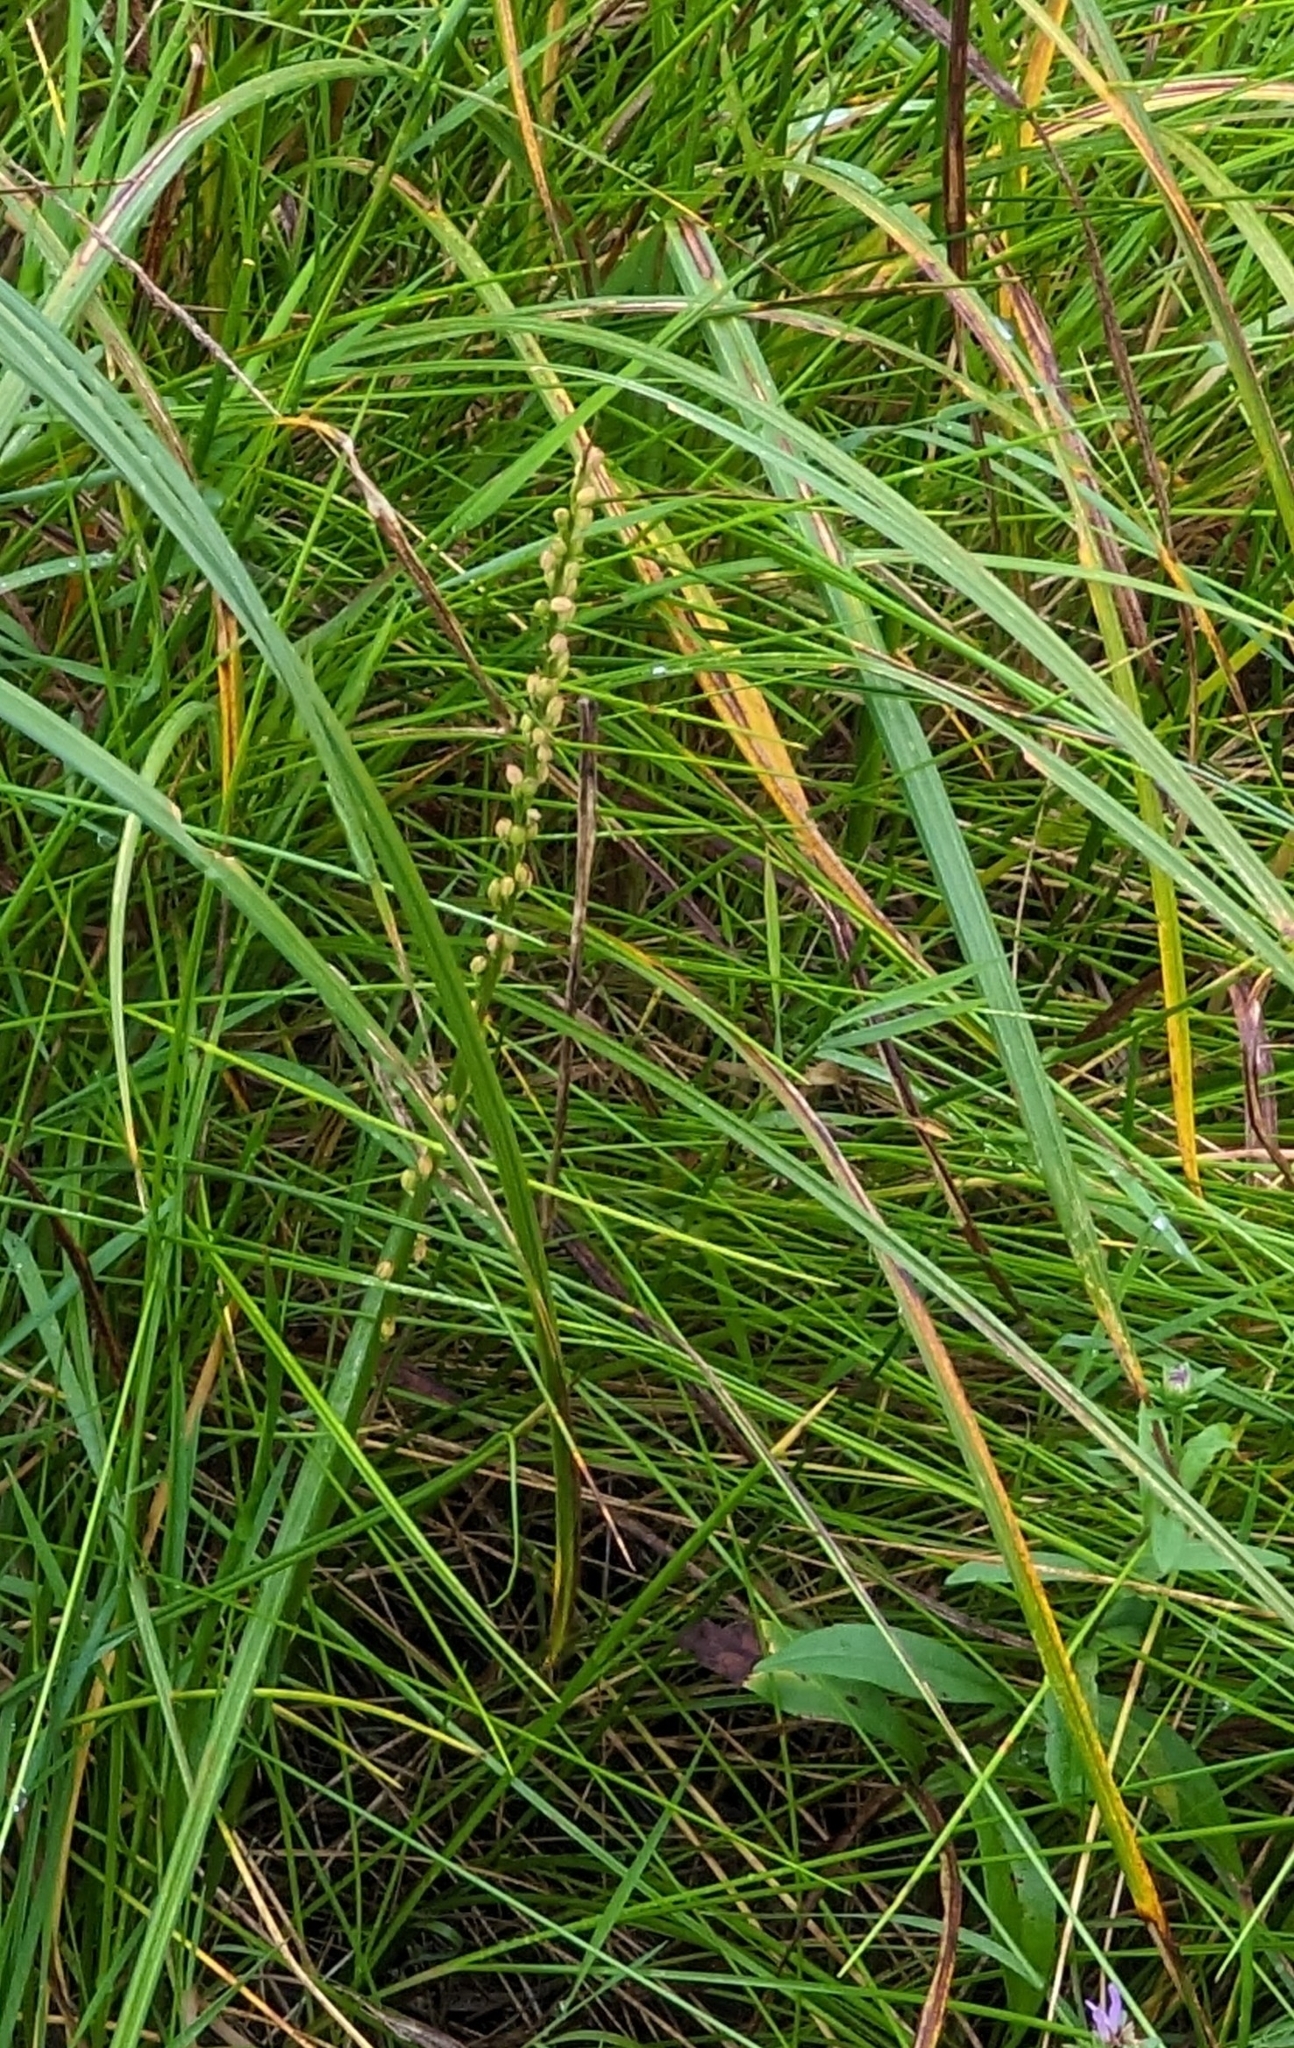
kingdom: Plantae
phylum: Tracheophyta
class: Liliopsida
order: Alismatales
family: Juncaginaceae
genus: Triglochin
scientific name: Triglochin maritima
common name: Sea arrowgrass
